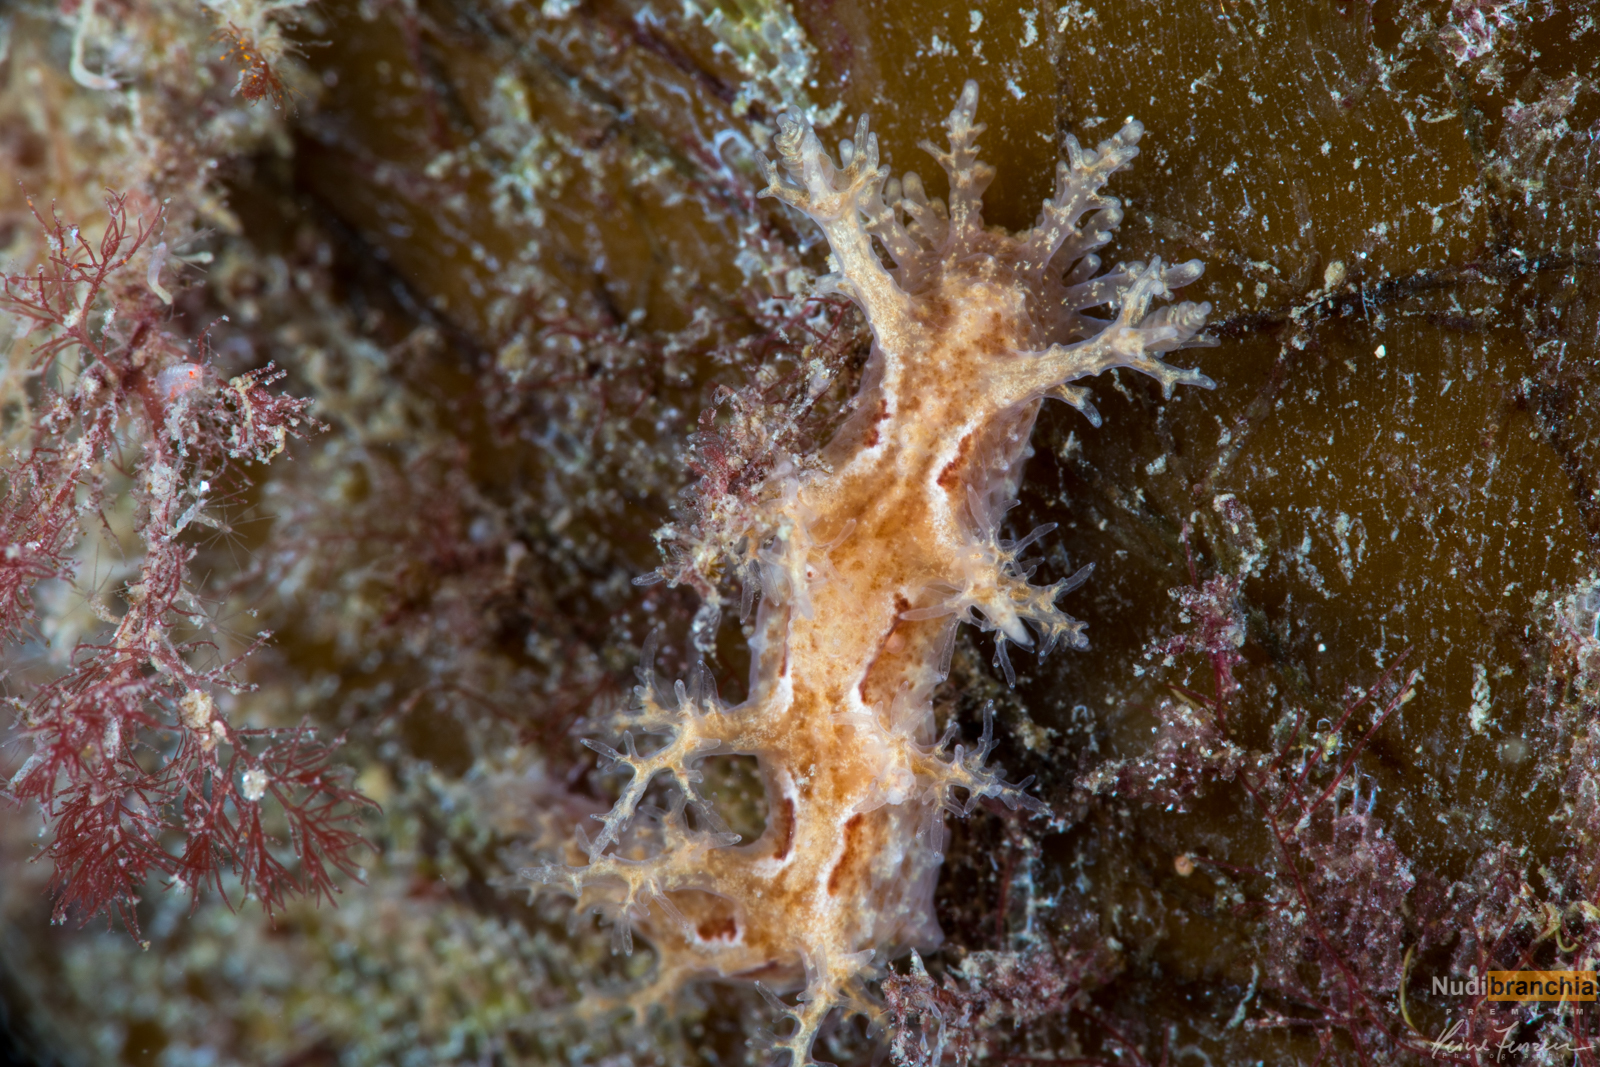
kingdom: Animalia
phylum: Mollusca
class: Gastropoda
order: Nudibranchia
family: Dendronotidae
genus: Dendronotus
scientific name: Dendronotus frondosus
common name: Bushy-backed nudibranch
